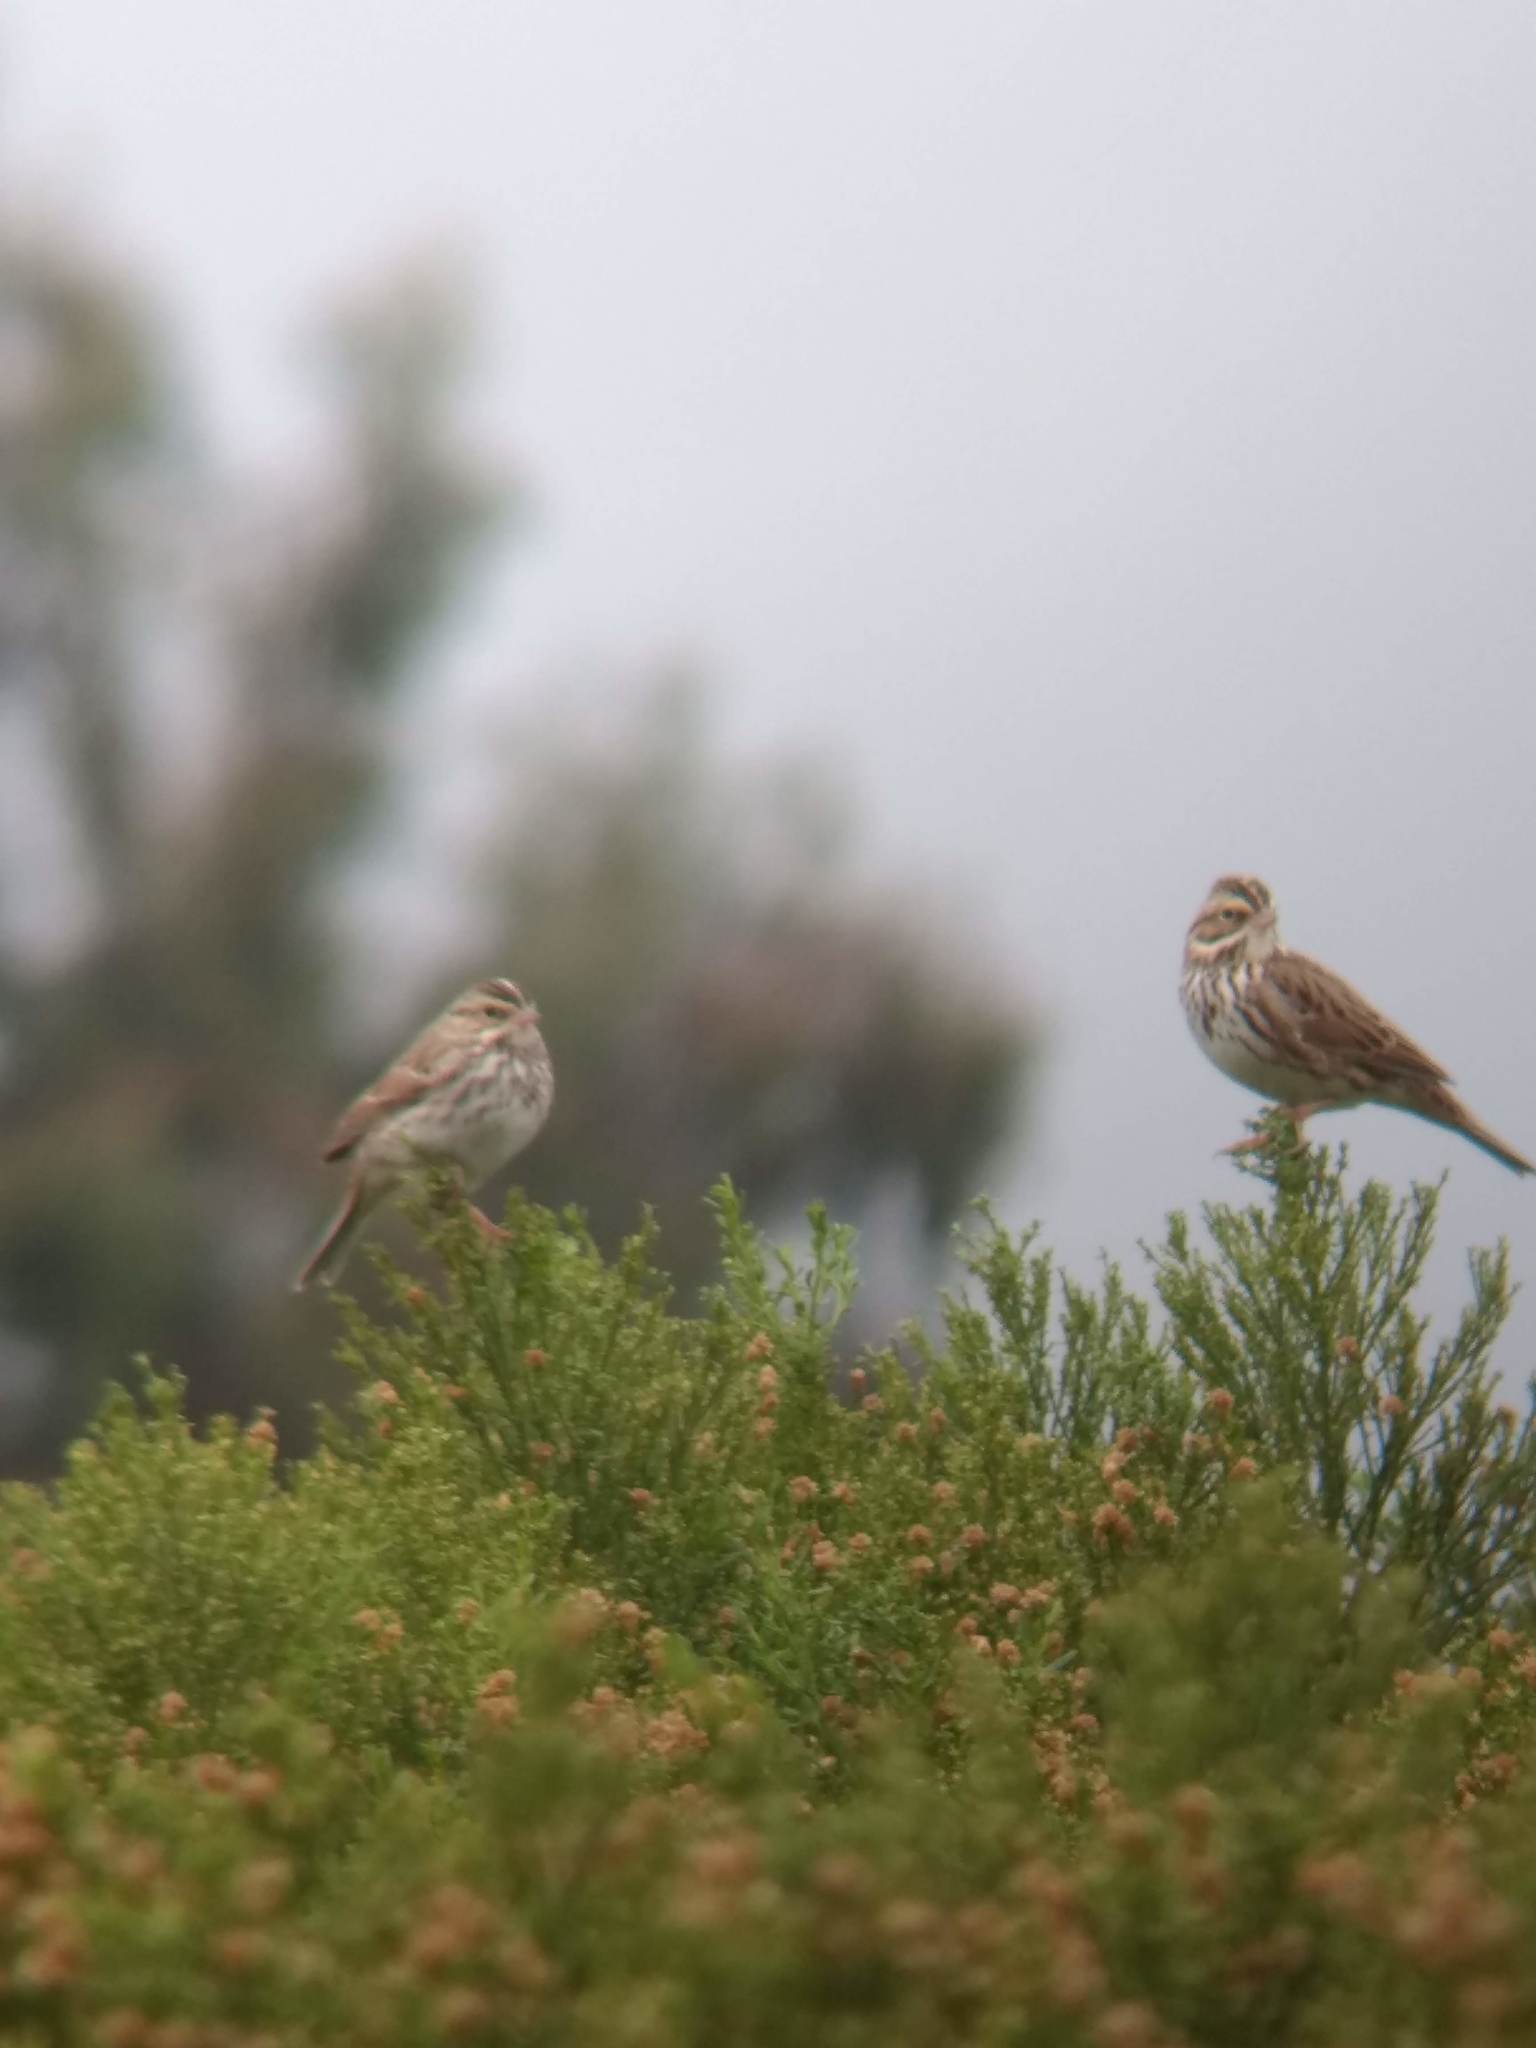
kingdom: Animalia
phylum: Chordata
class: Aves
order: Passeriformes
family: Passerellidae
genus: Passerculus
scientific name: Passerculus sandwichensis
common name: Savannah sparrow
